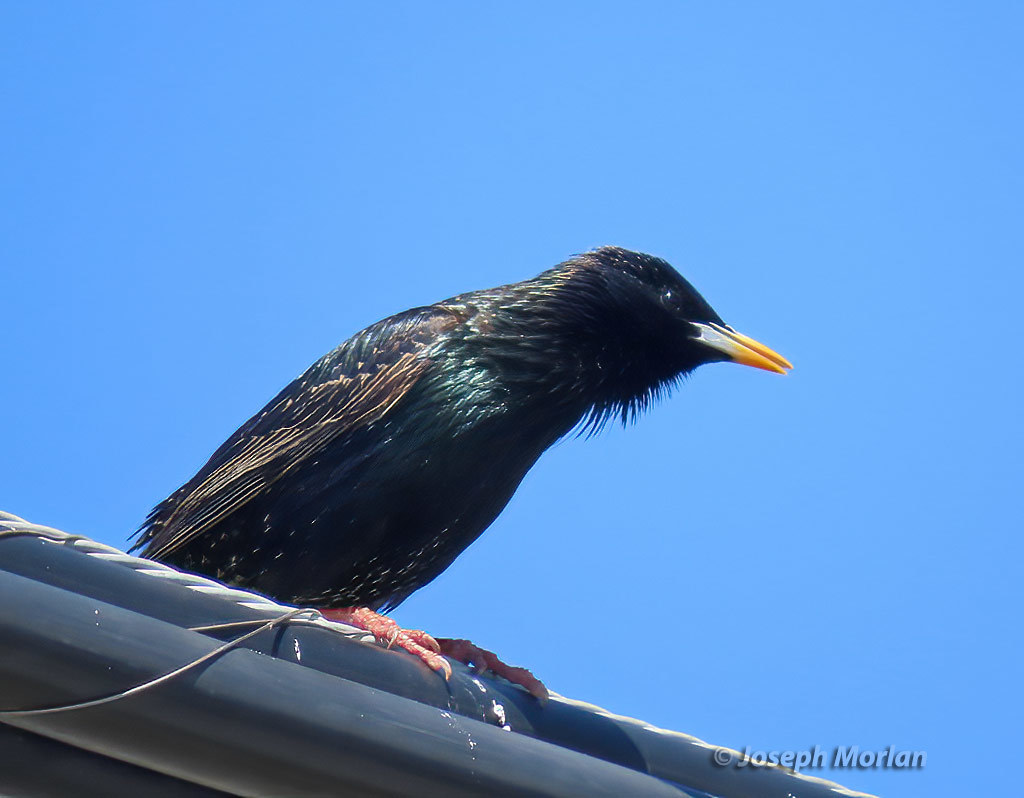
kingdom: Animalia
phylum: Chordata
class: Aves
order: Passeriformes
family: Sturnidae
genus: Sturnus
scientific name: Sturnus vulgaris
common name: Common starling
